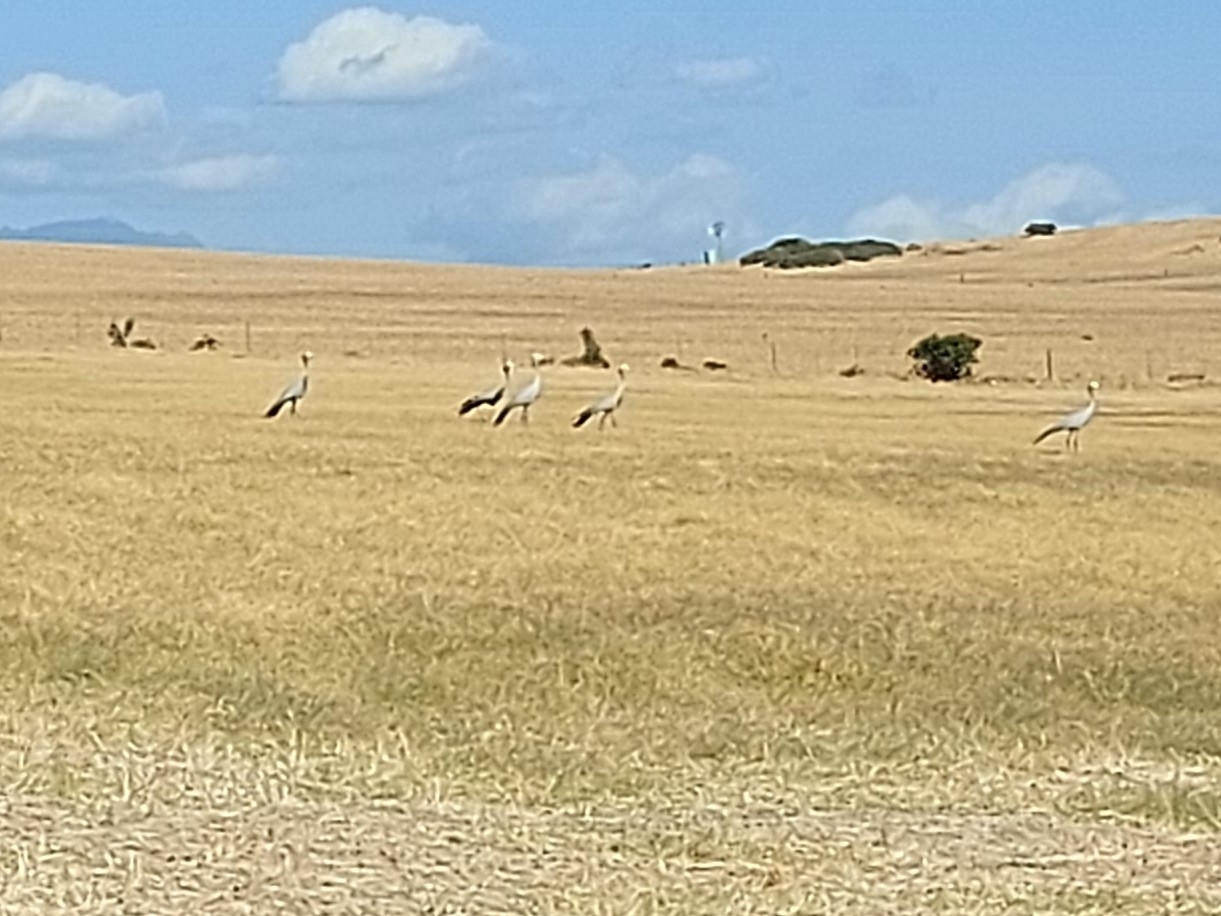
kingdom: Animalia
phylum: Chordata
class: Aves
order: Gruiformes
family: Gruidae
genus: Anthropoides
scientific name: Anthropoides paradiseus
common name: Blue crane
